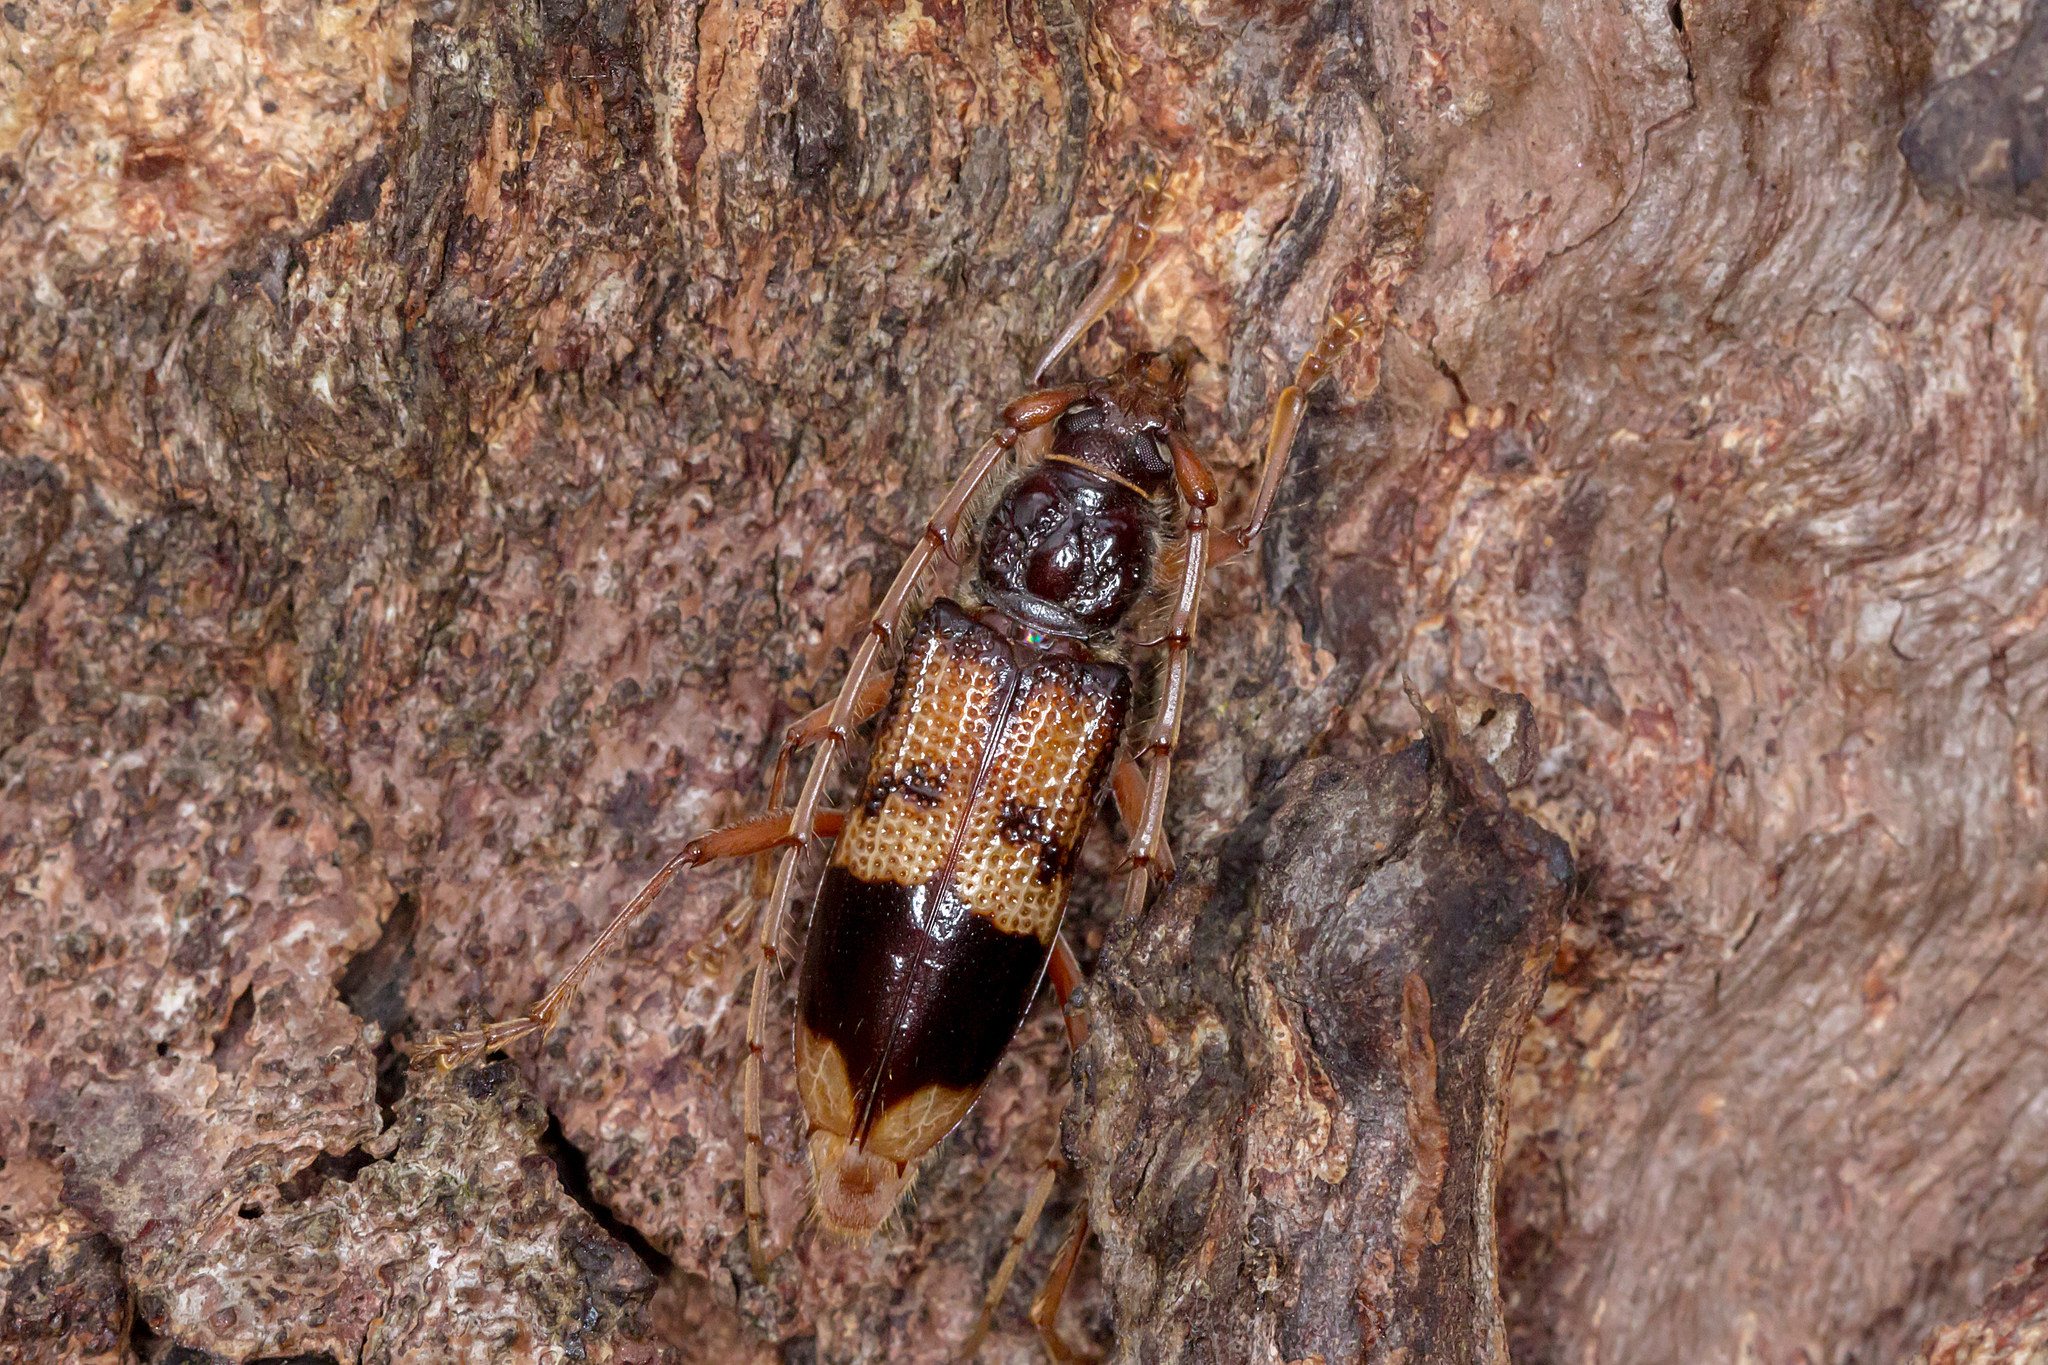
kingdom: Animalia
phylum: Arthropoda
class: Insecta
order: Coleoptera
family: Cerambycidae
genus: Phoracantha
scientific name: Phoracantha recurva
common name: Eucalyptus longhorned borer
